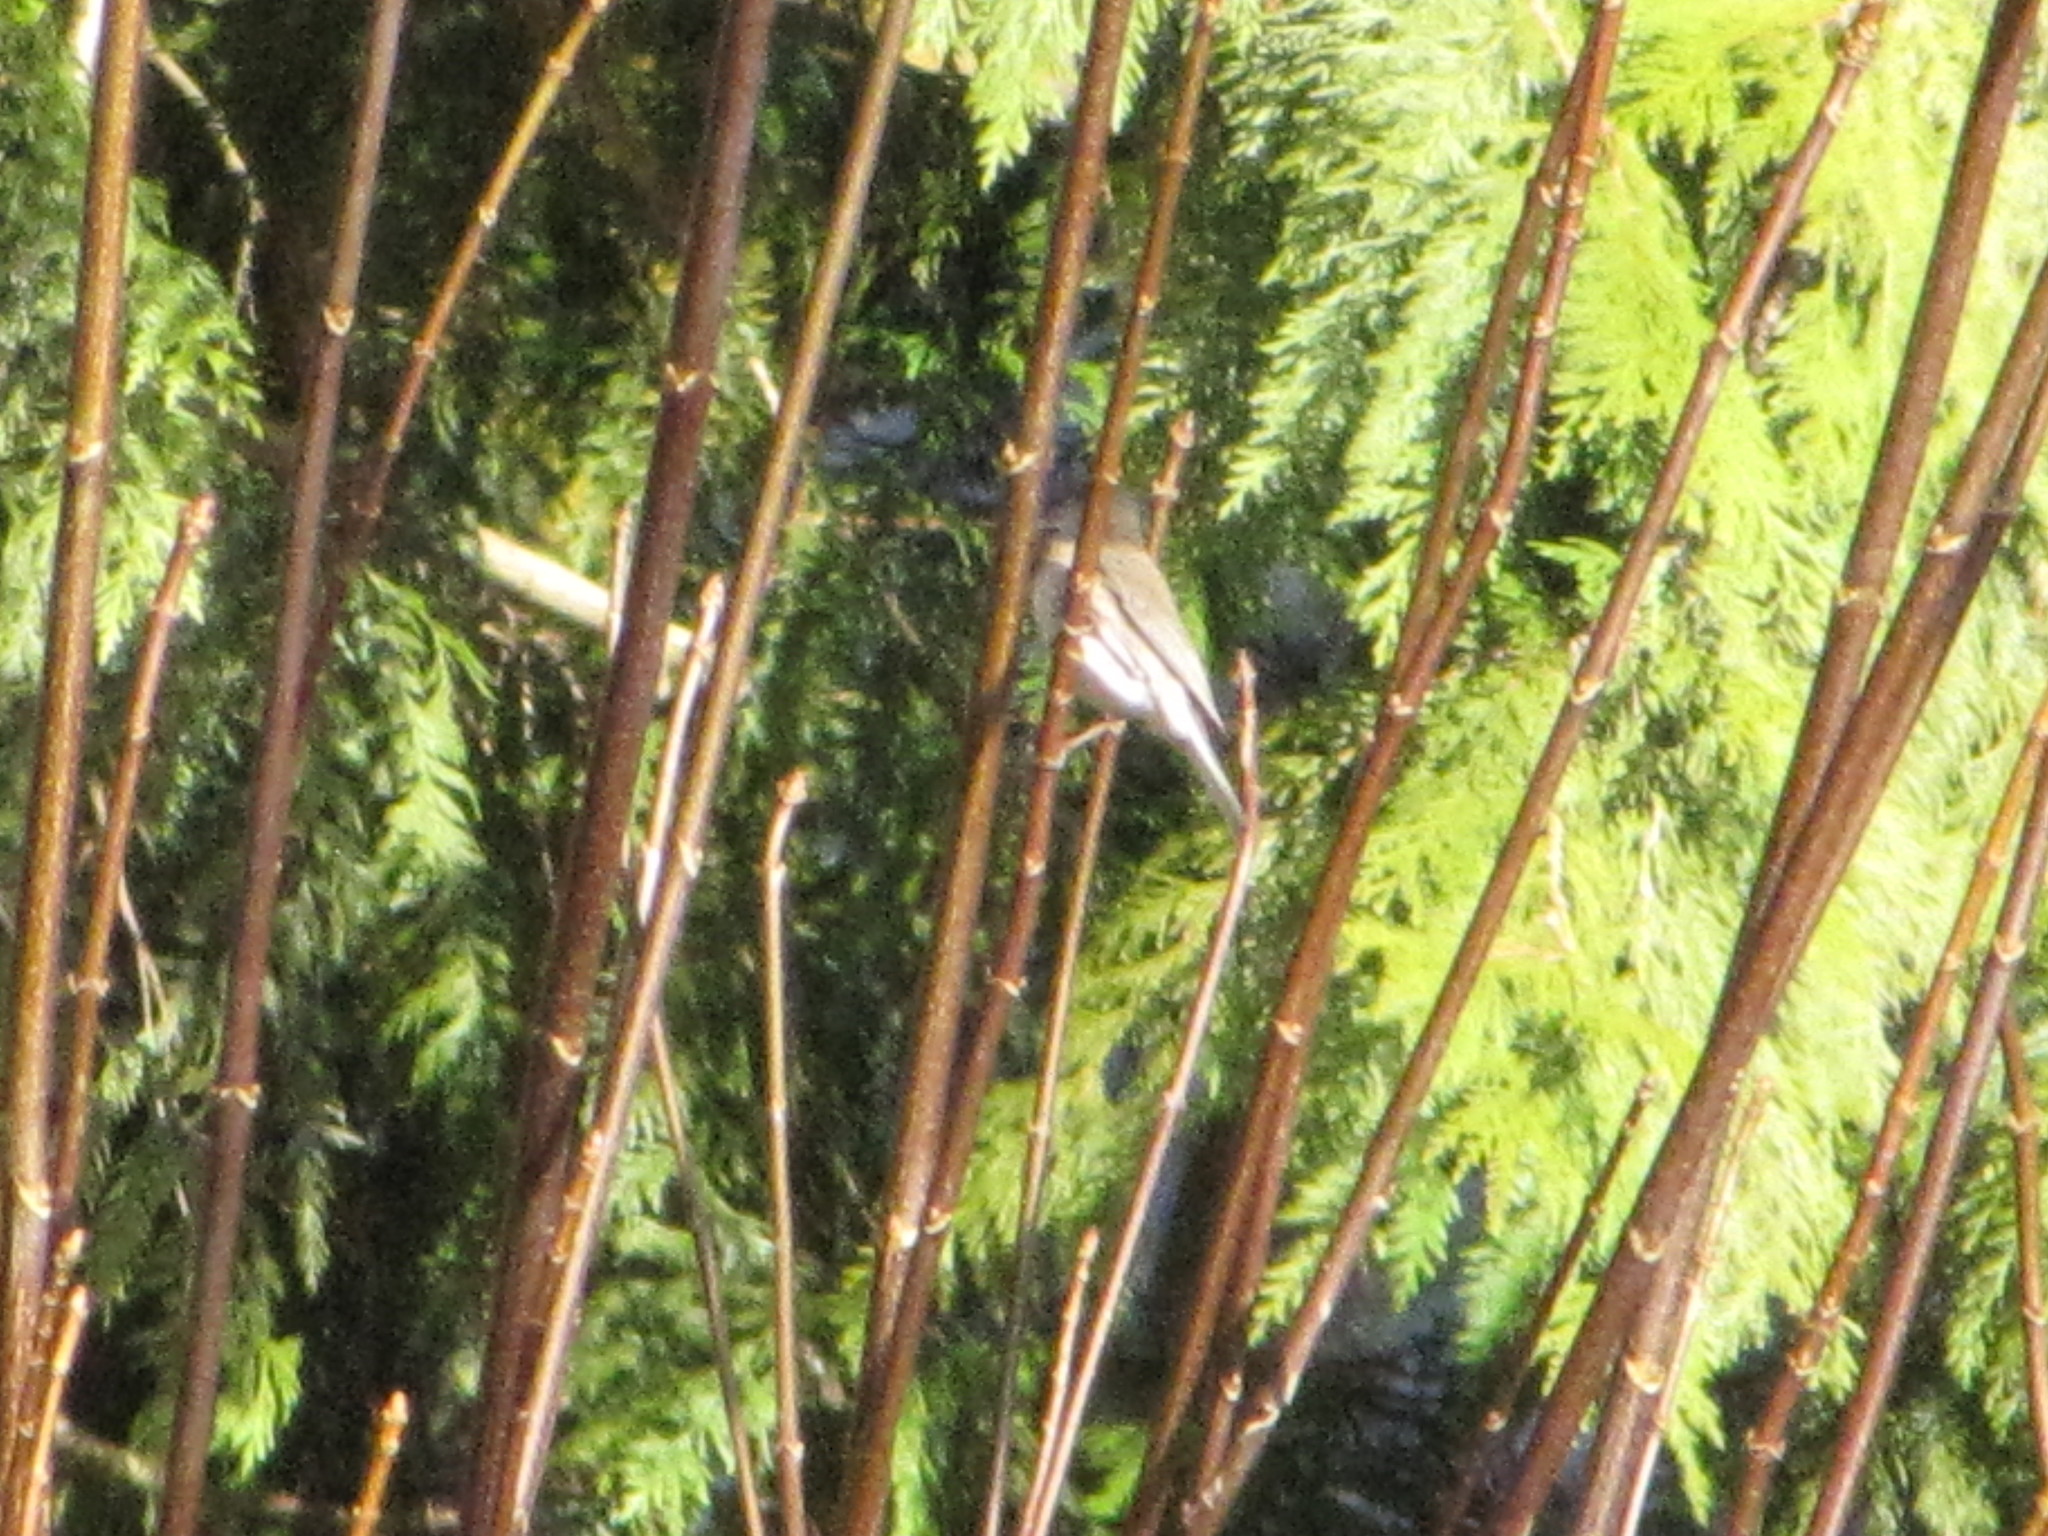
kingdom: Animalia
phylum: Chordata
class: Aves
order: Passeriformes
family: Passerellidae
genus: Junco
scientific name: Junco hyemalis
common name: Dark-eyed junco
